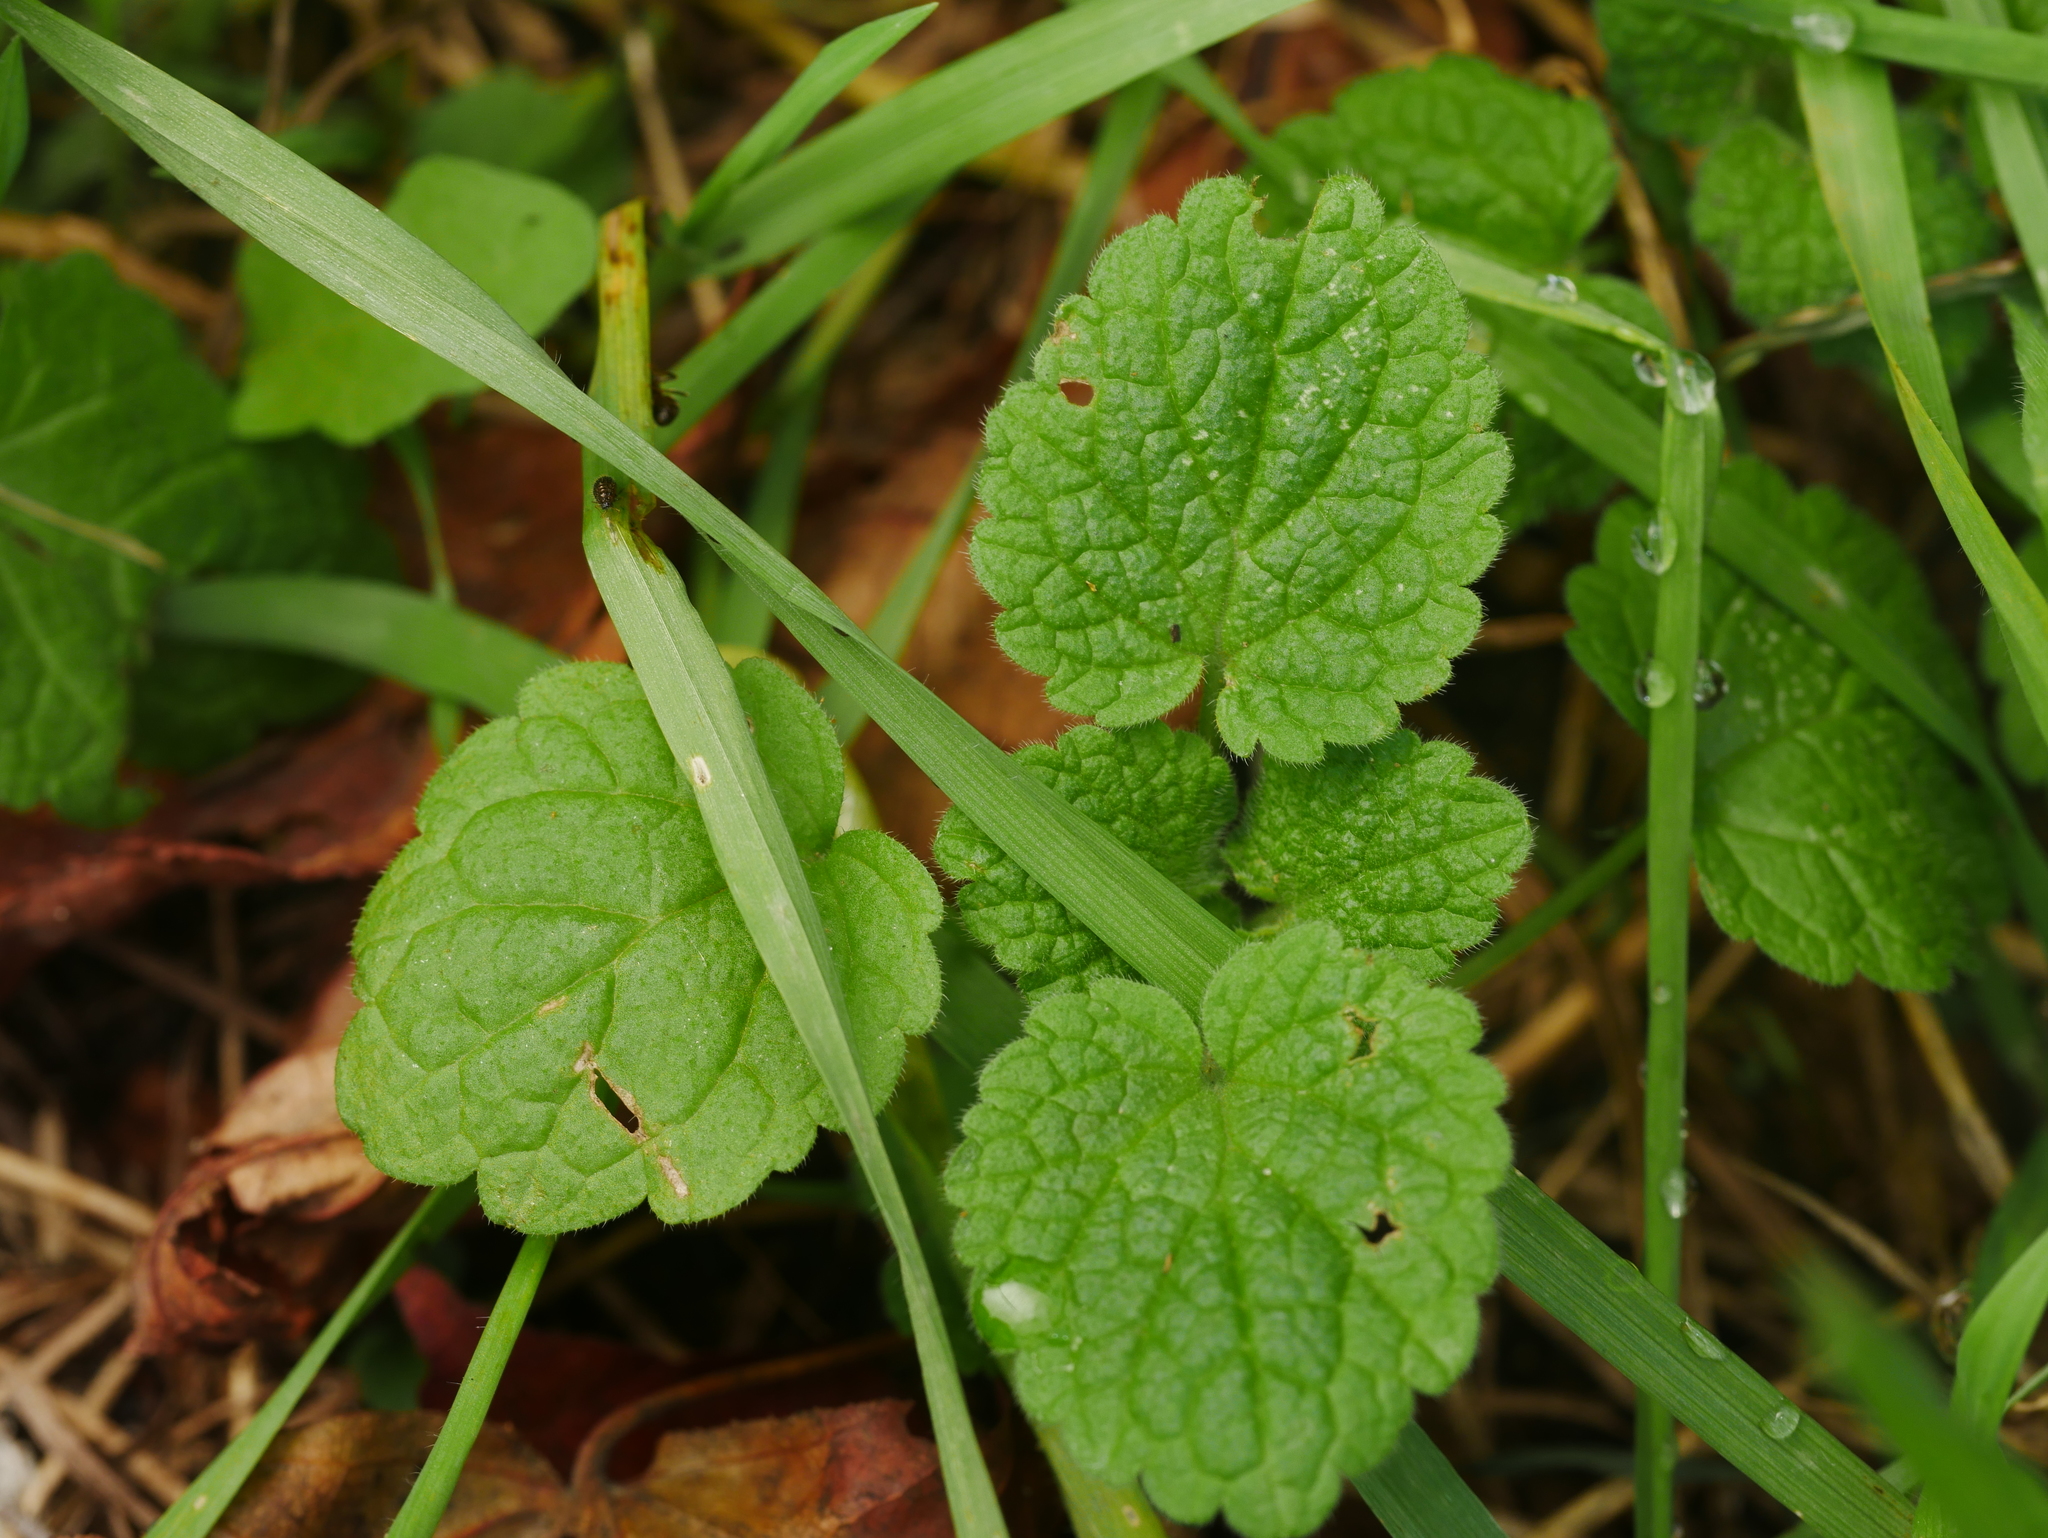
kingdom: Plantae
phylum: Tracheophyta
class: Magnoliopsida
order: Lamiales
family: Lamiaceae
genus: Lamium
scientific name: Lamium purpureum
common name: Red dead-nettle
